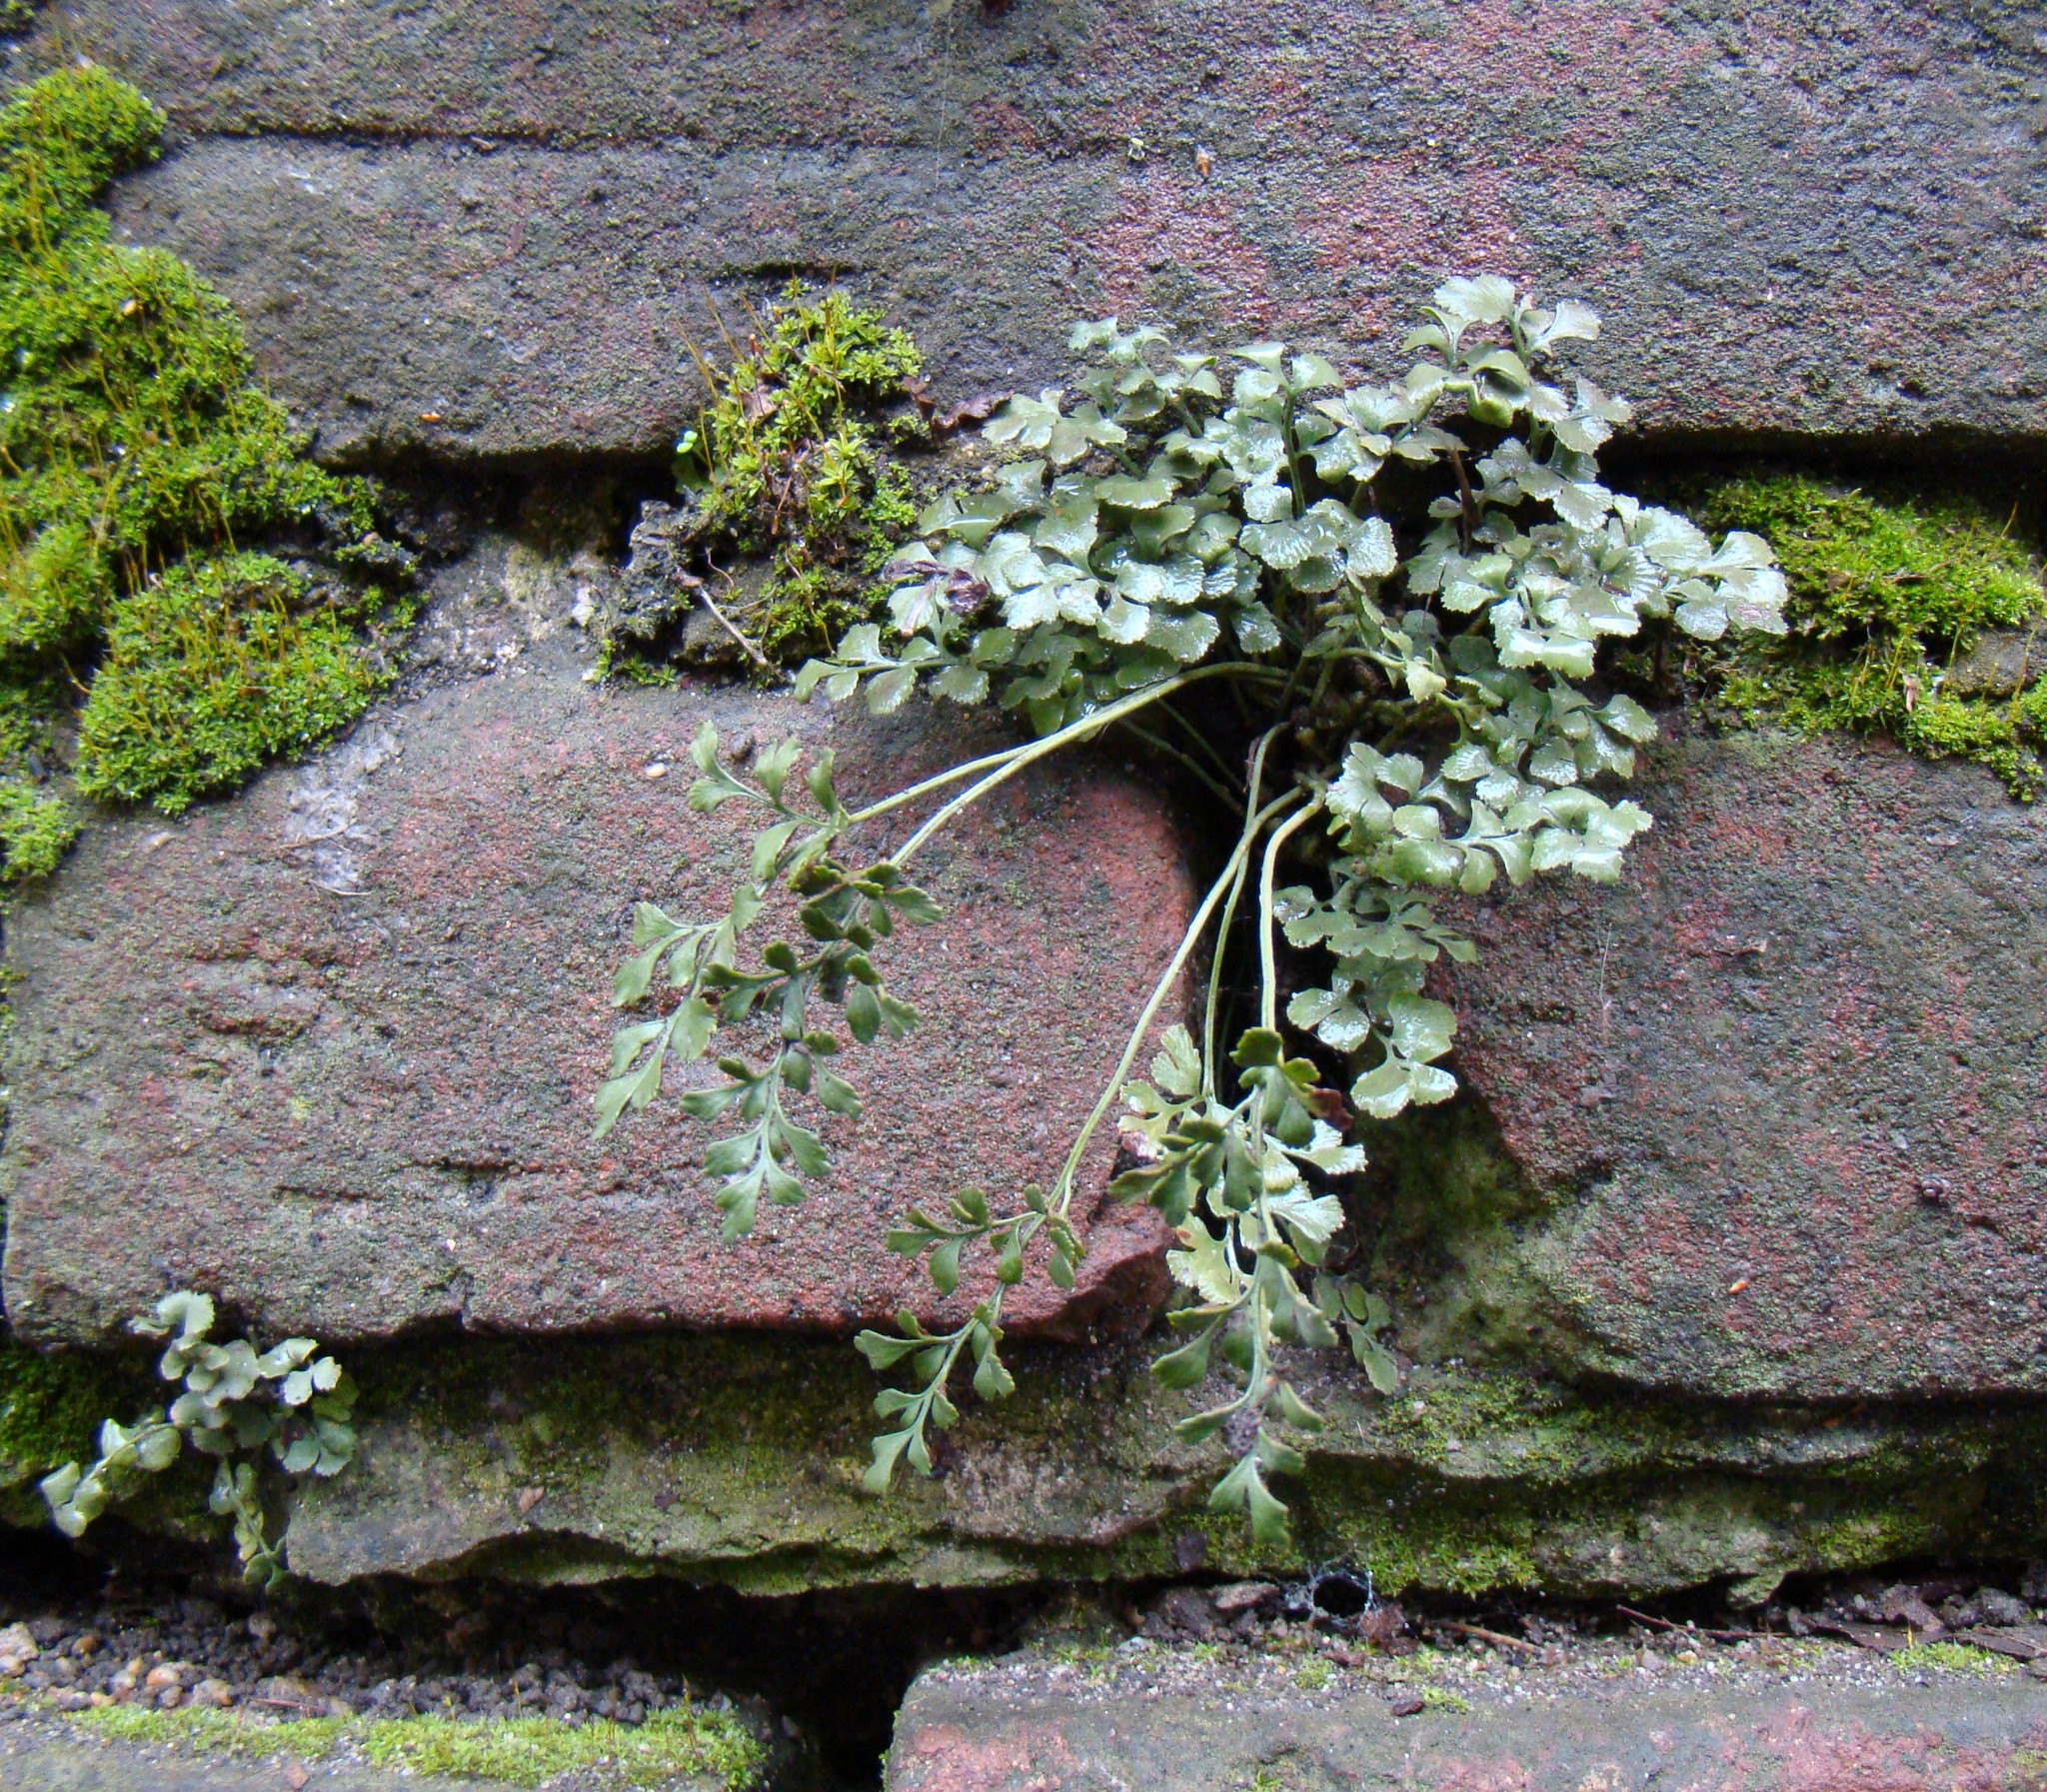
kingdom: Plantae
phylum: Tracheophyta
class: Polypodiopsida
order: Polypodiales
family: Aspleniaceae
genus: Asplenium
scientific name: Asplenium ruta-muraria
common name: Wall-rue
